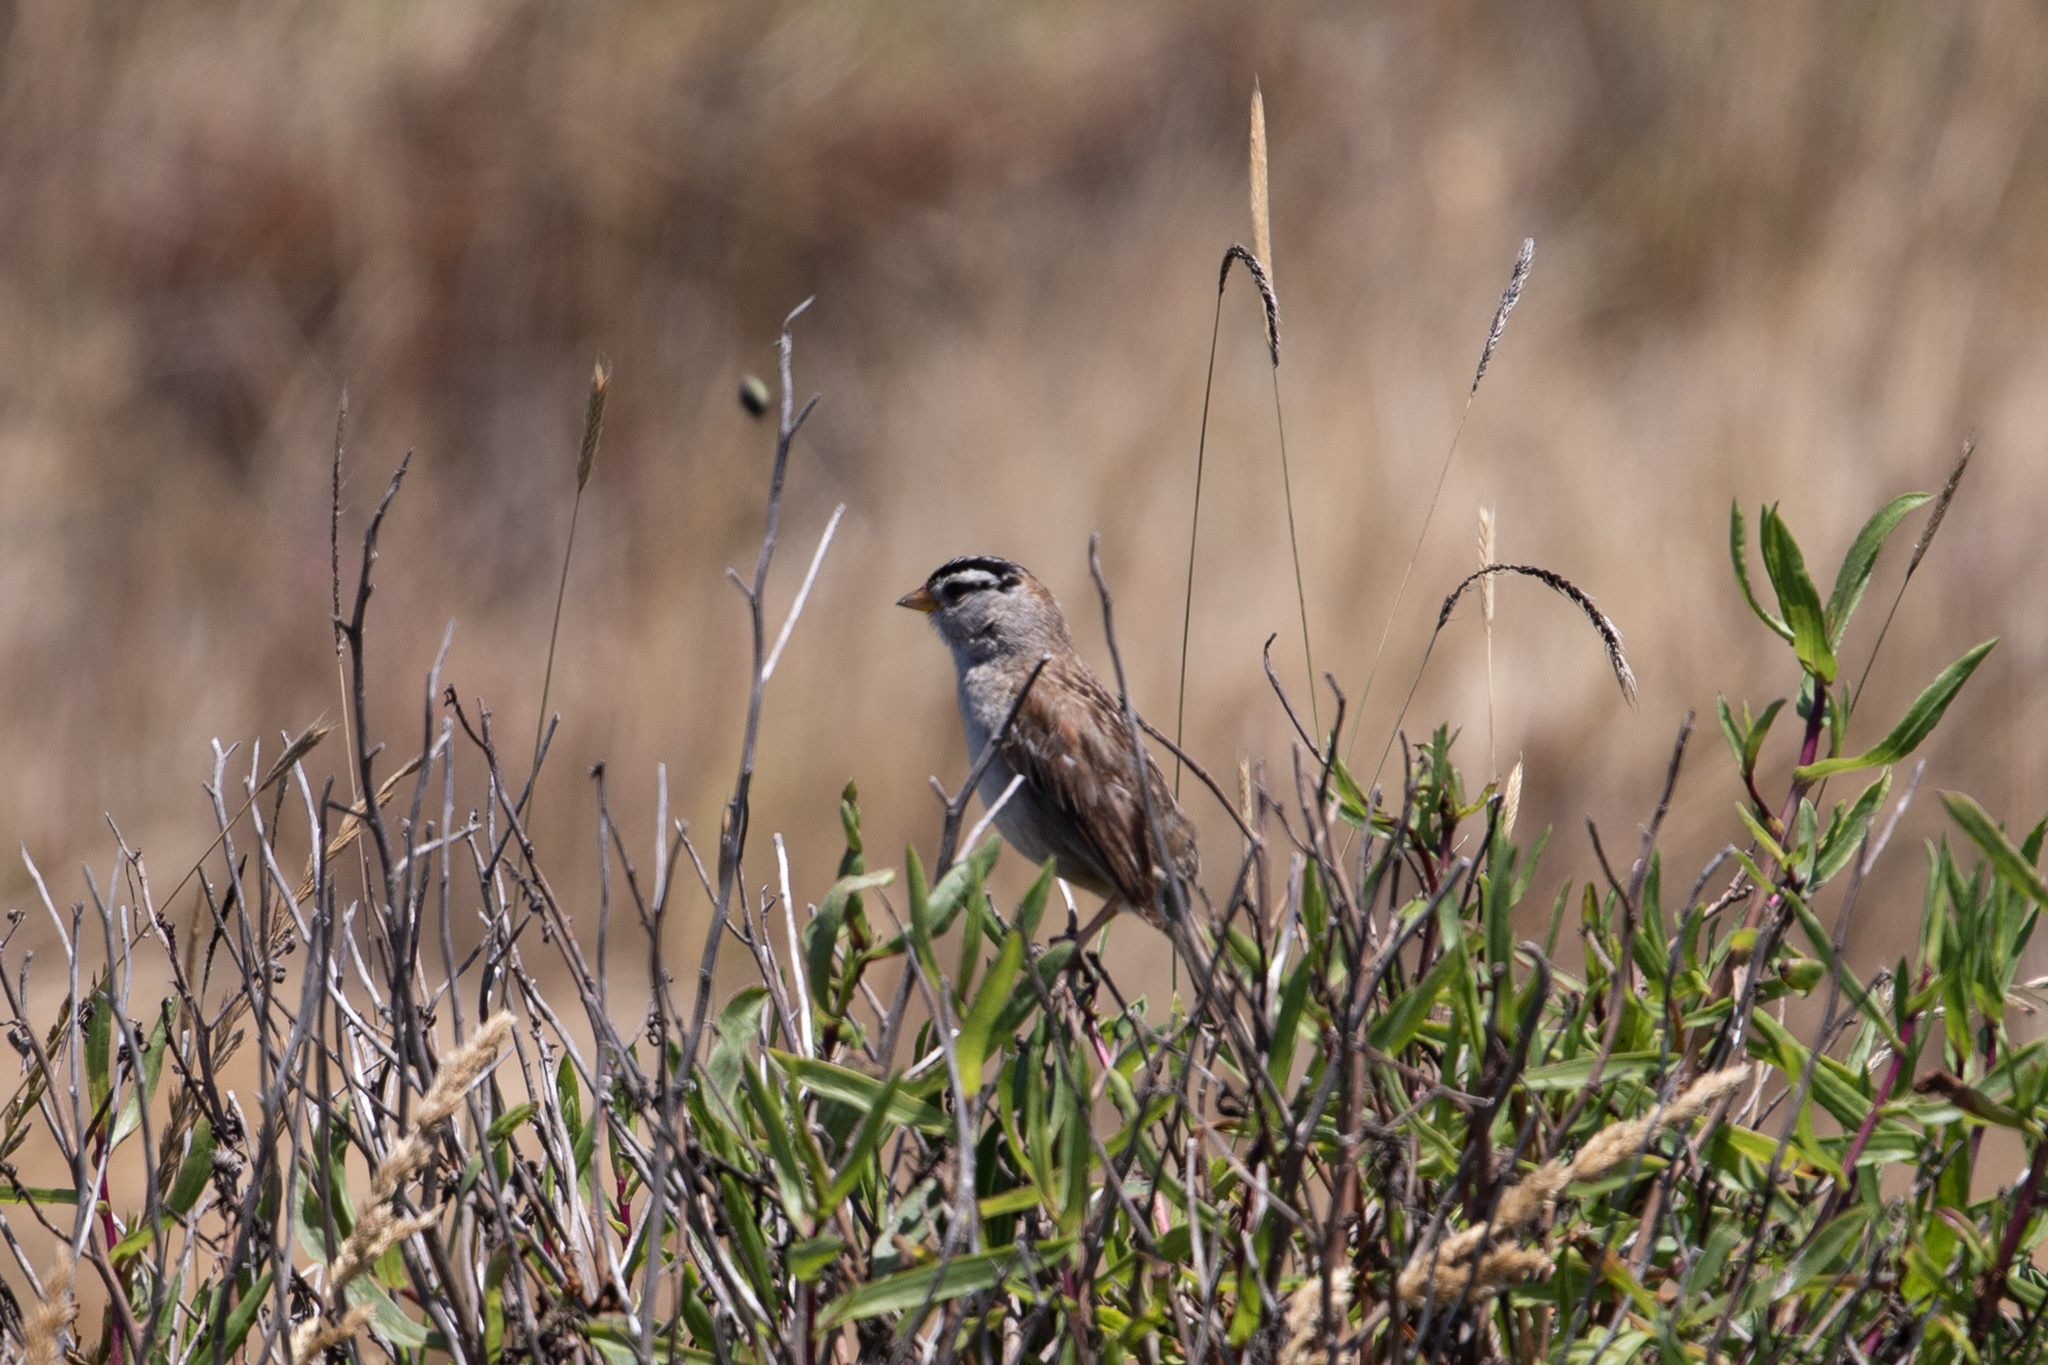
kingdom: Animalia
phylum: Chordata
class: Aves
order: Passeriformes
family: Passerellidae
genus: Zonotrichia
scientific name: Zonotrichia leucophrys
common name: White-crowned sparrow
